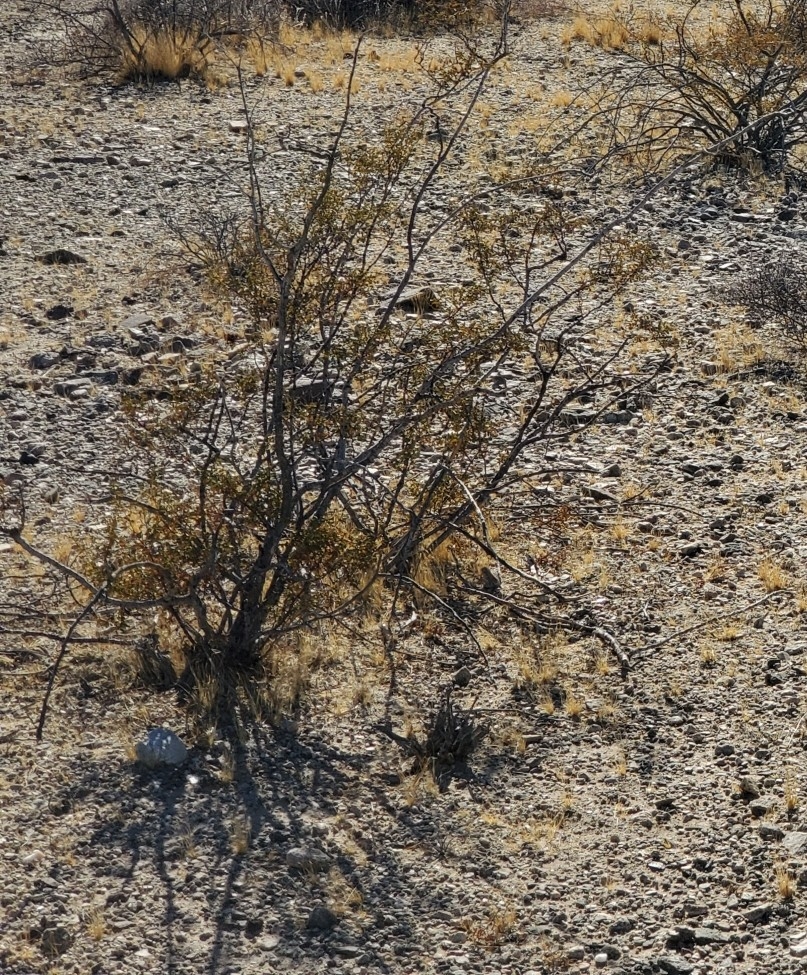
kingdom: Plantae
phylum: Tracheophyta
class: Magnoliopsida
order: Zygophyllales
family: Zygophyllaceae
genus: Larrea
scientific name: Larrea tridentata
